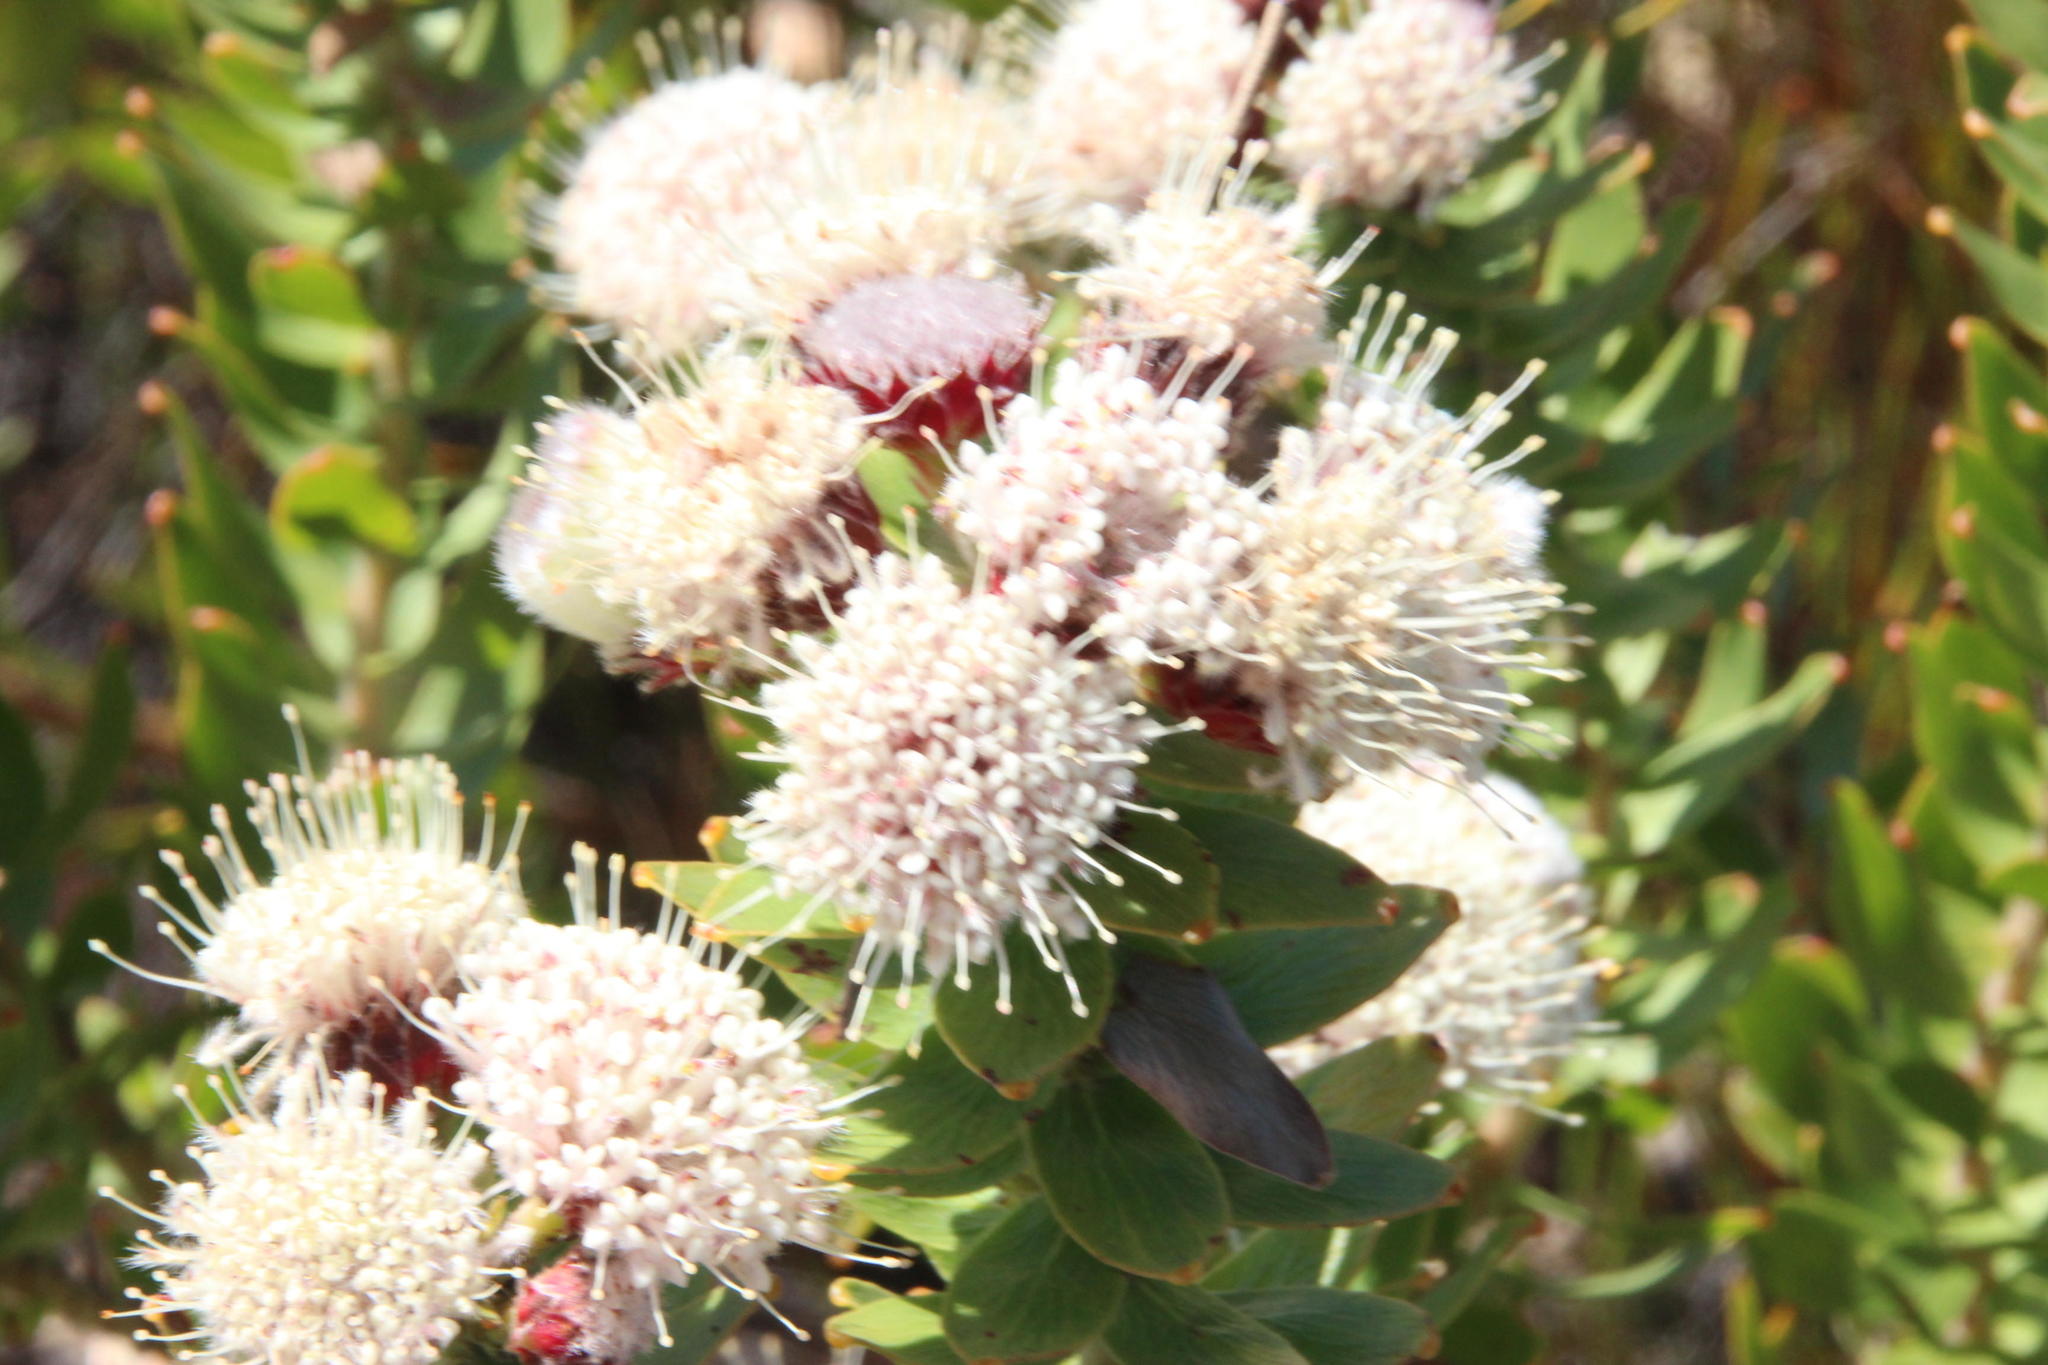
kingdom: Plantae
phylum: Tracheophyta
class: Magnoliopsida
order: Proteales
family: Proteaceae
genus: Leucospermum
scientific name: Leucospermum bolusii
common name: Gordon's bay pincushion
